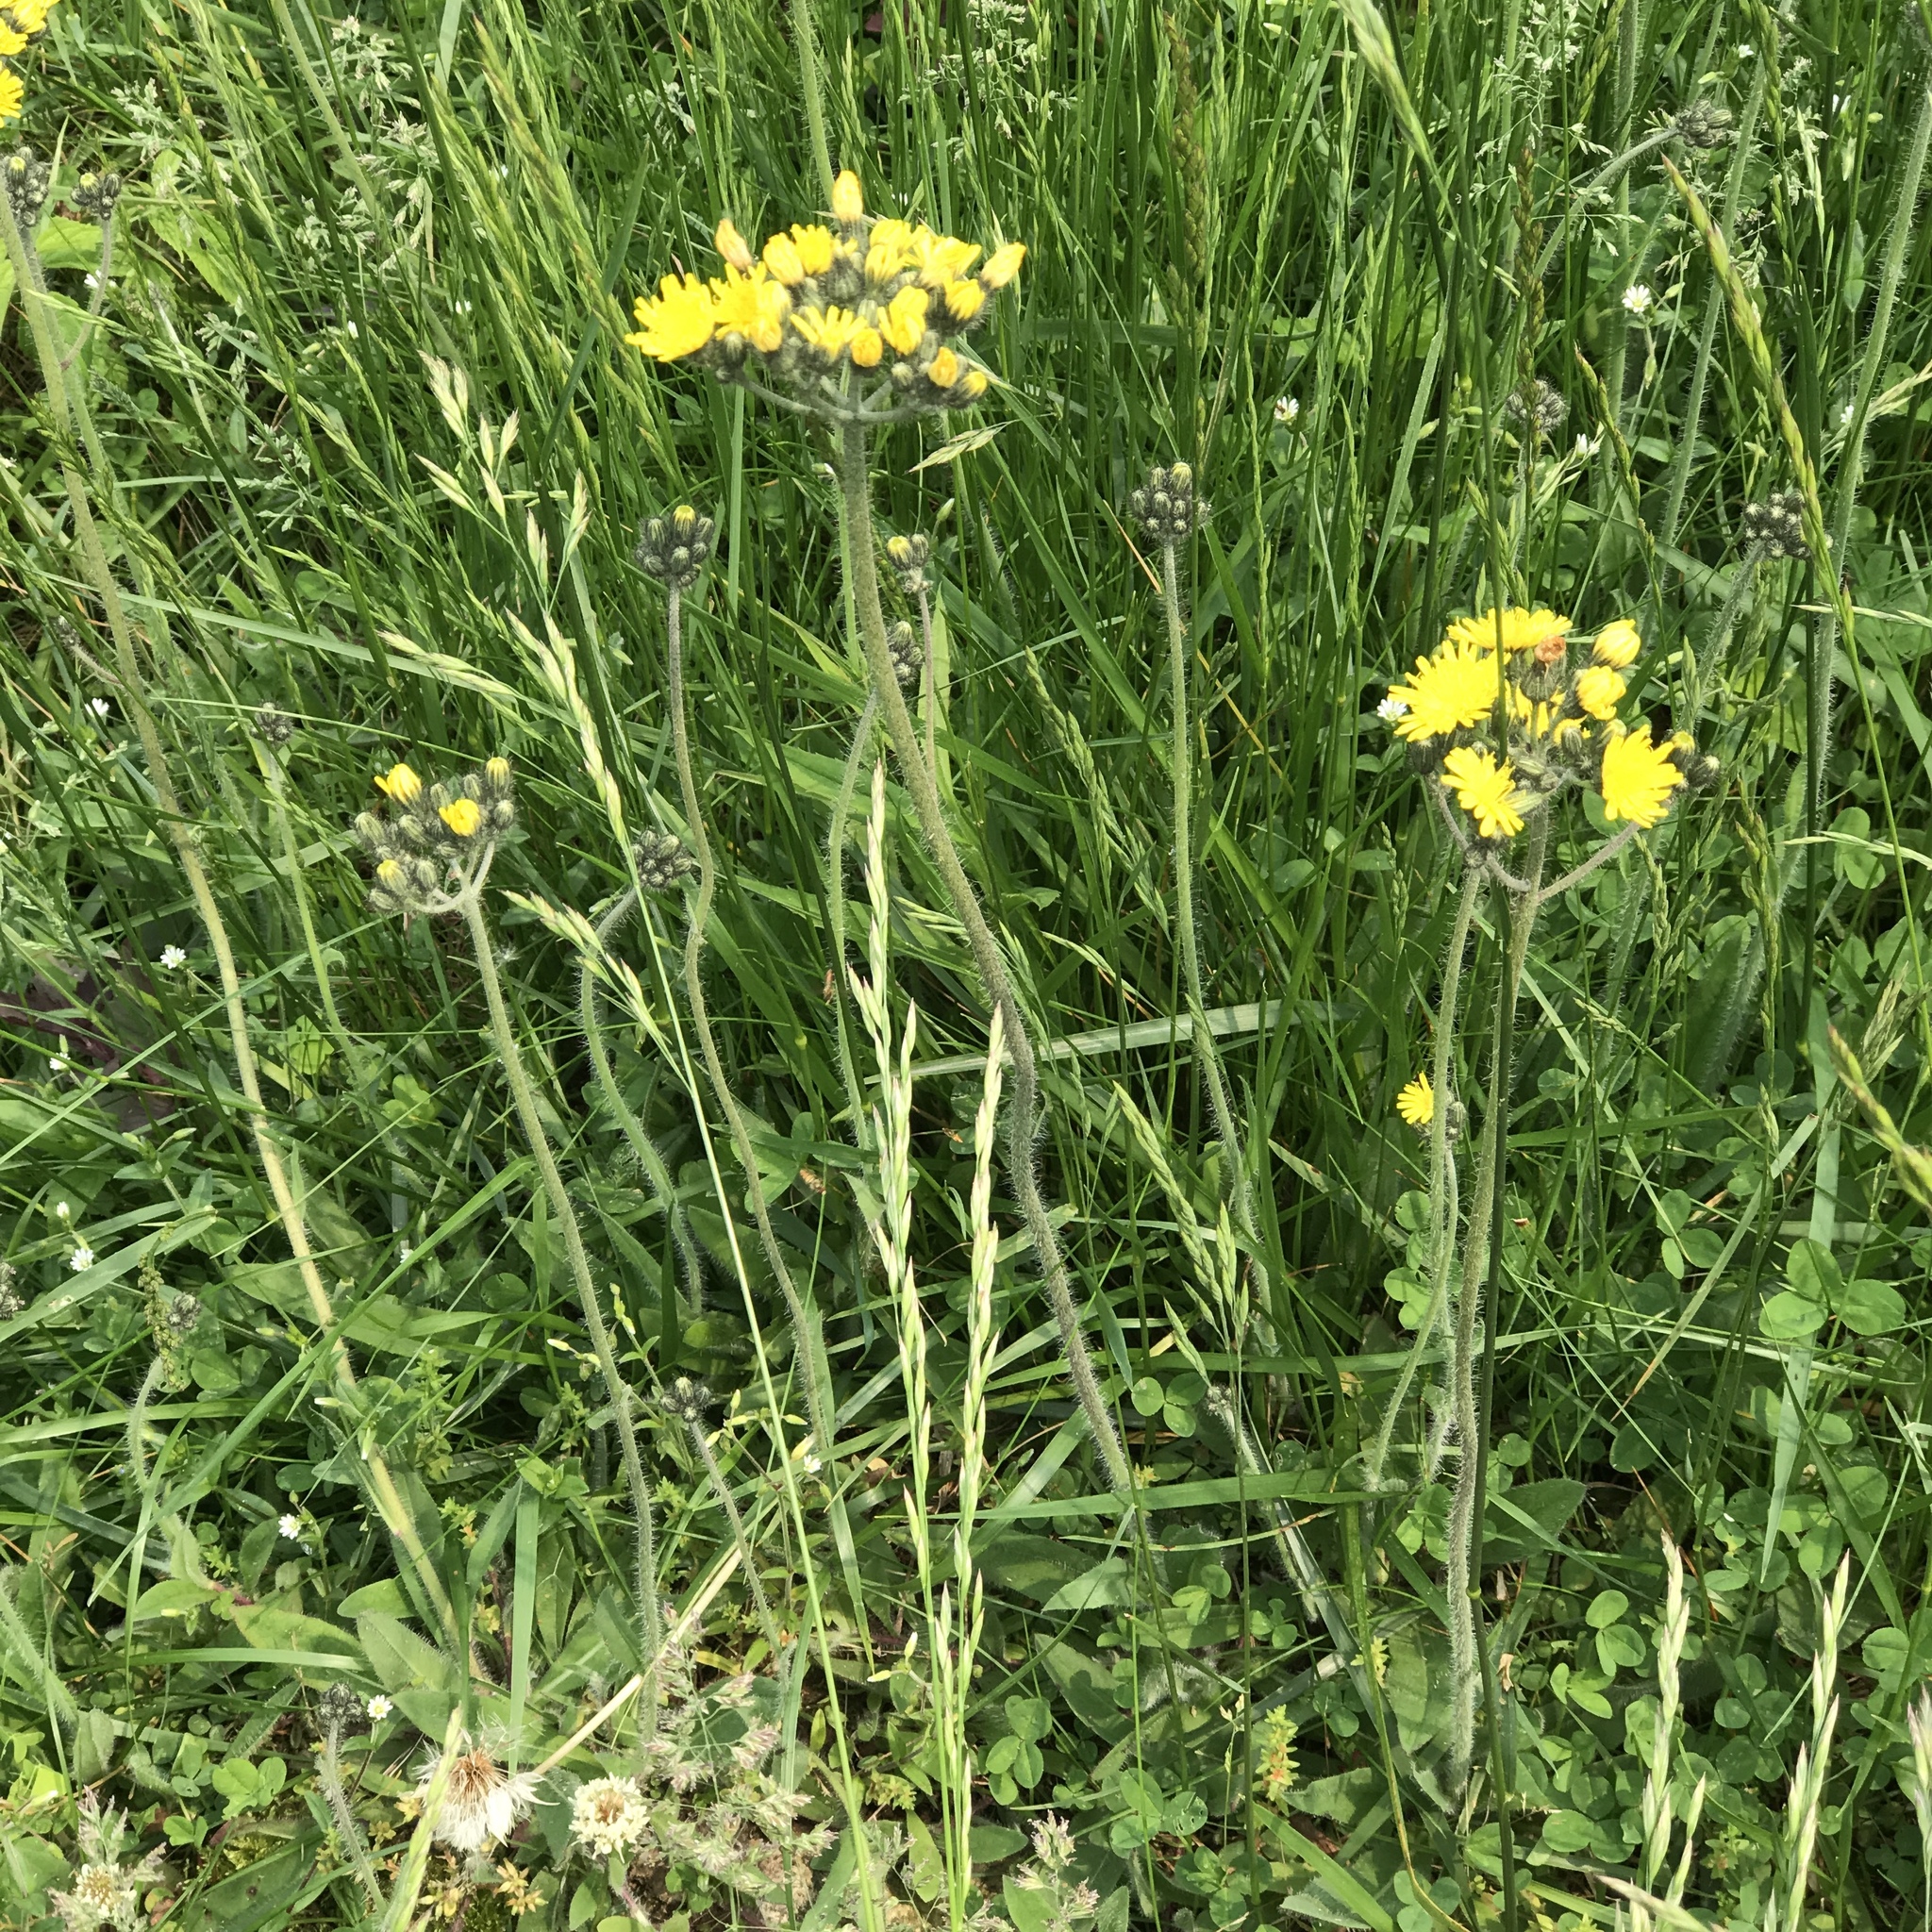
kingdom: Plantae
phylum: Tracheophyta
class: Magnoliopsida
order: Asterales
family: Asteraceae
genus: Pilosella
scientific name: Pilosella caespitosa
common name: Yellow fox-and-cubs
